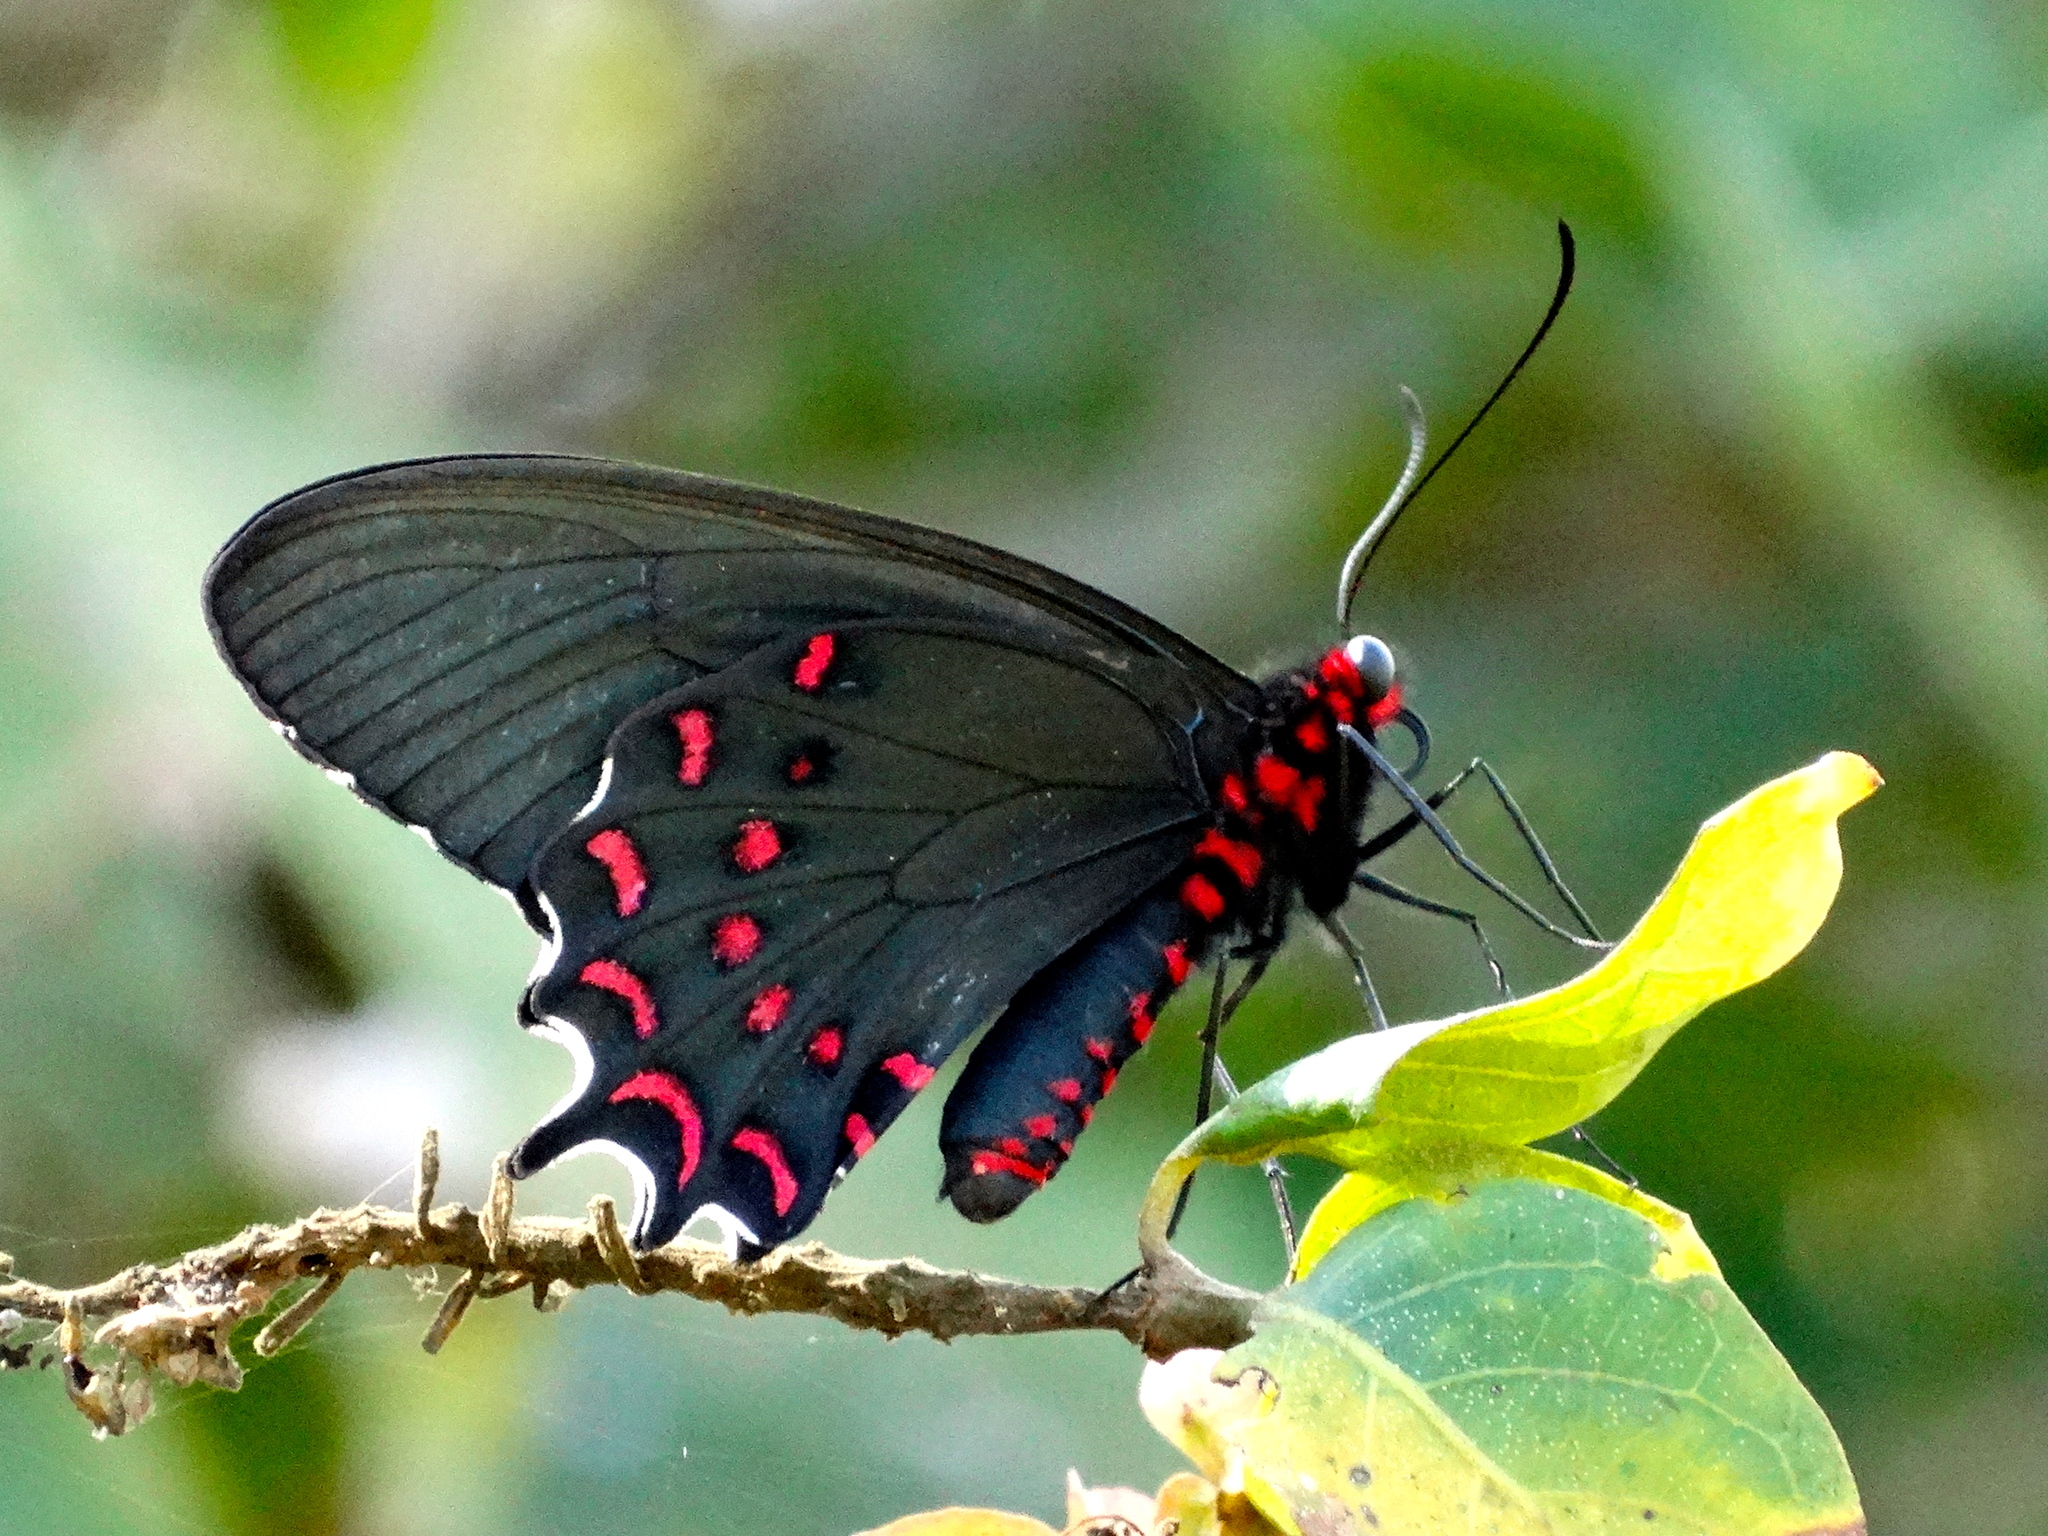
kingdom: Animalia
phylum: Arthropoda
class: Insecta
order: Lepidoptera
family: Papilionidae
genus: Parides
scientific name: Parides photinus
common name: Pink-spotted cattleheart
